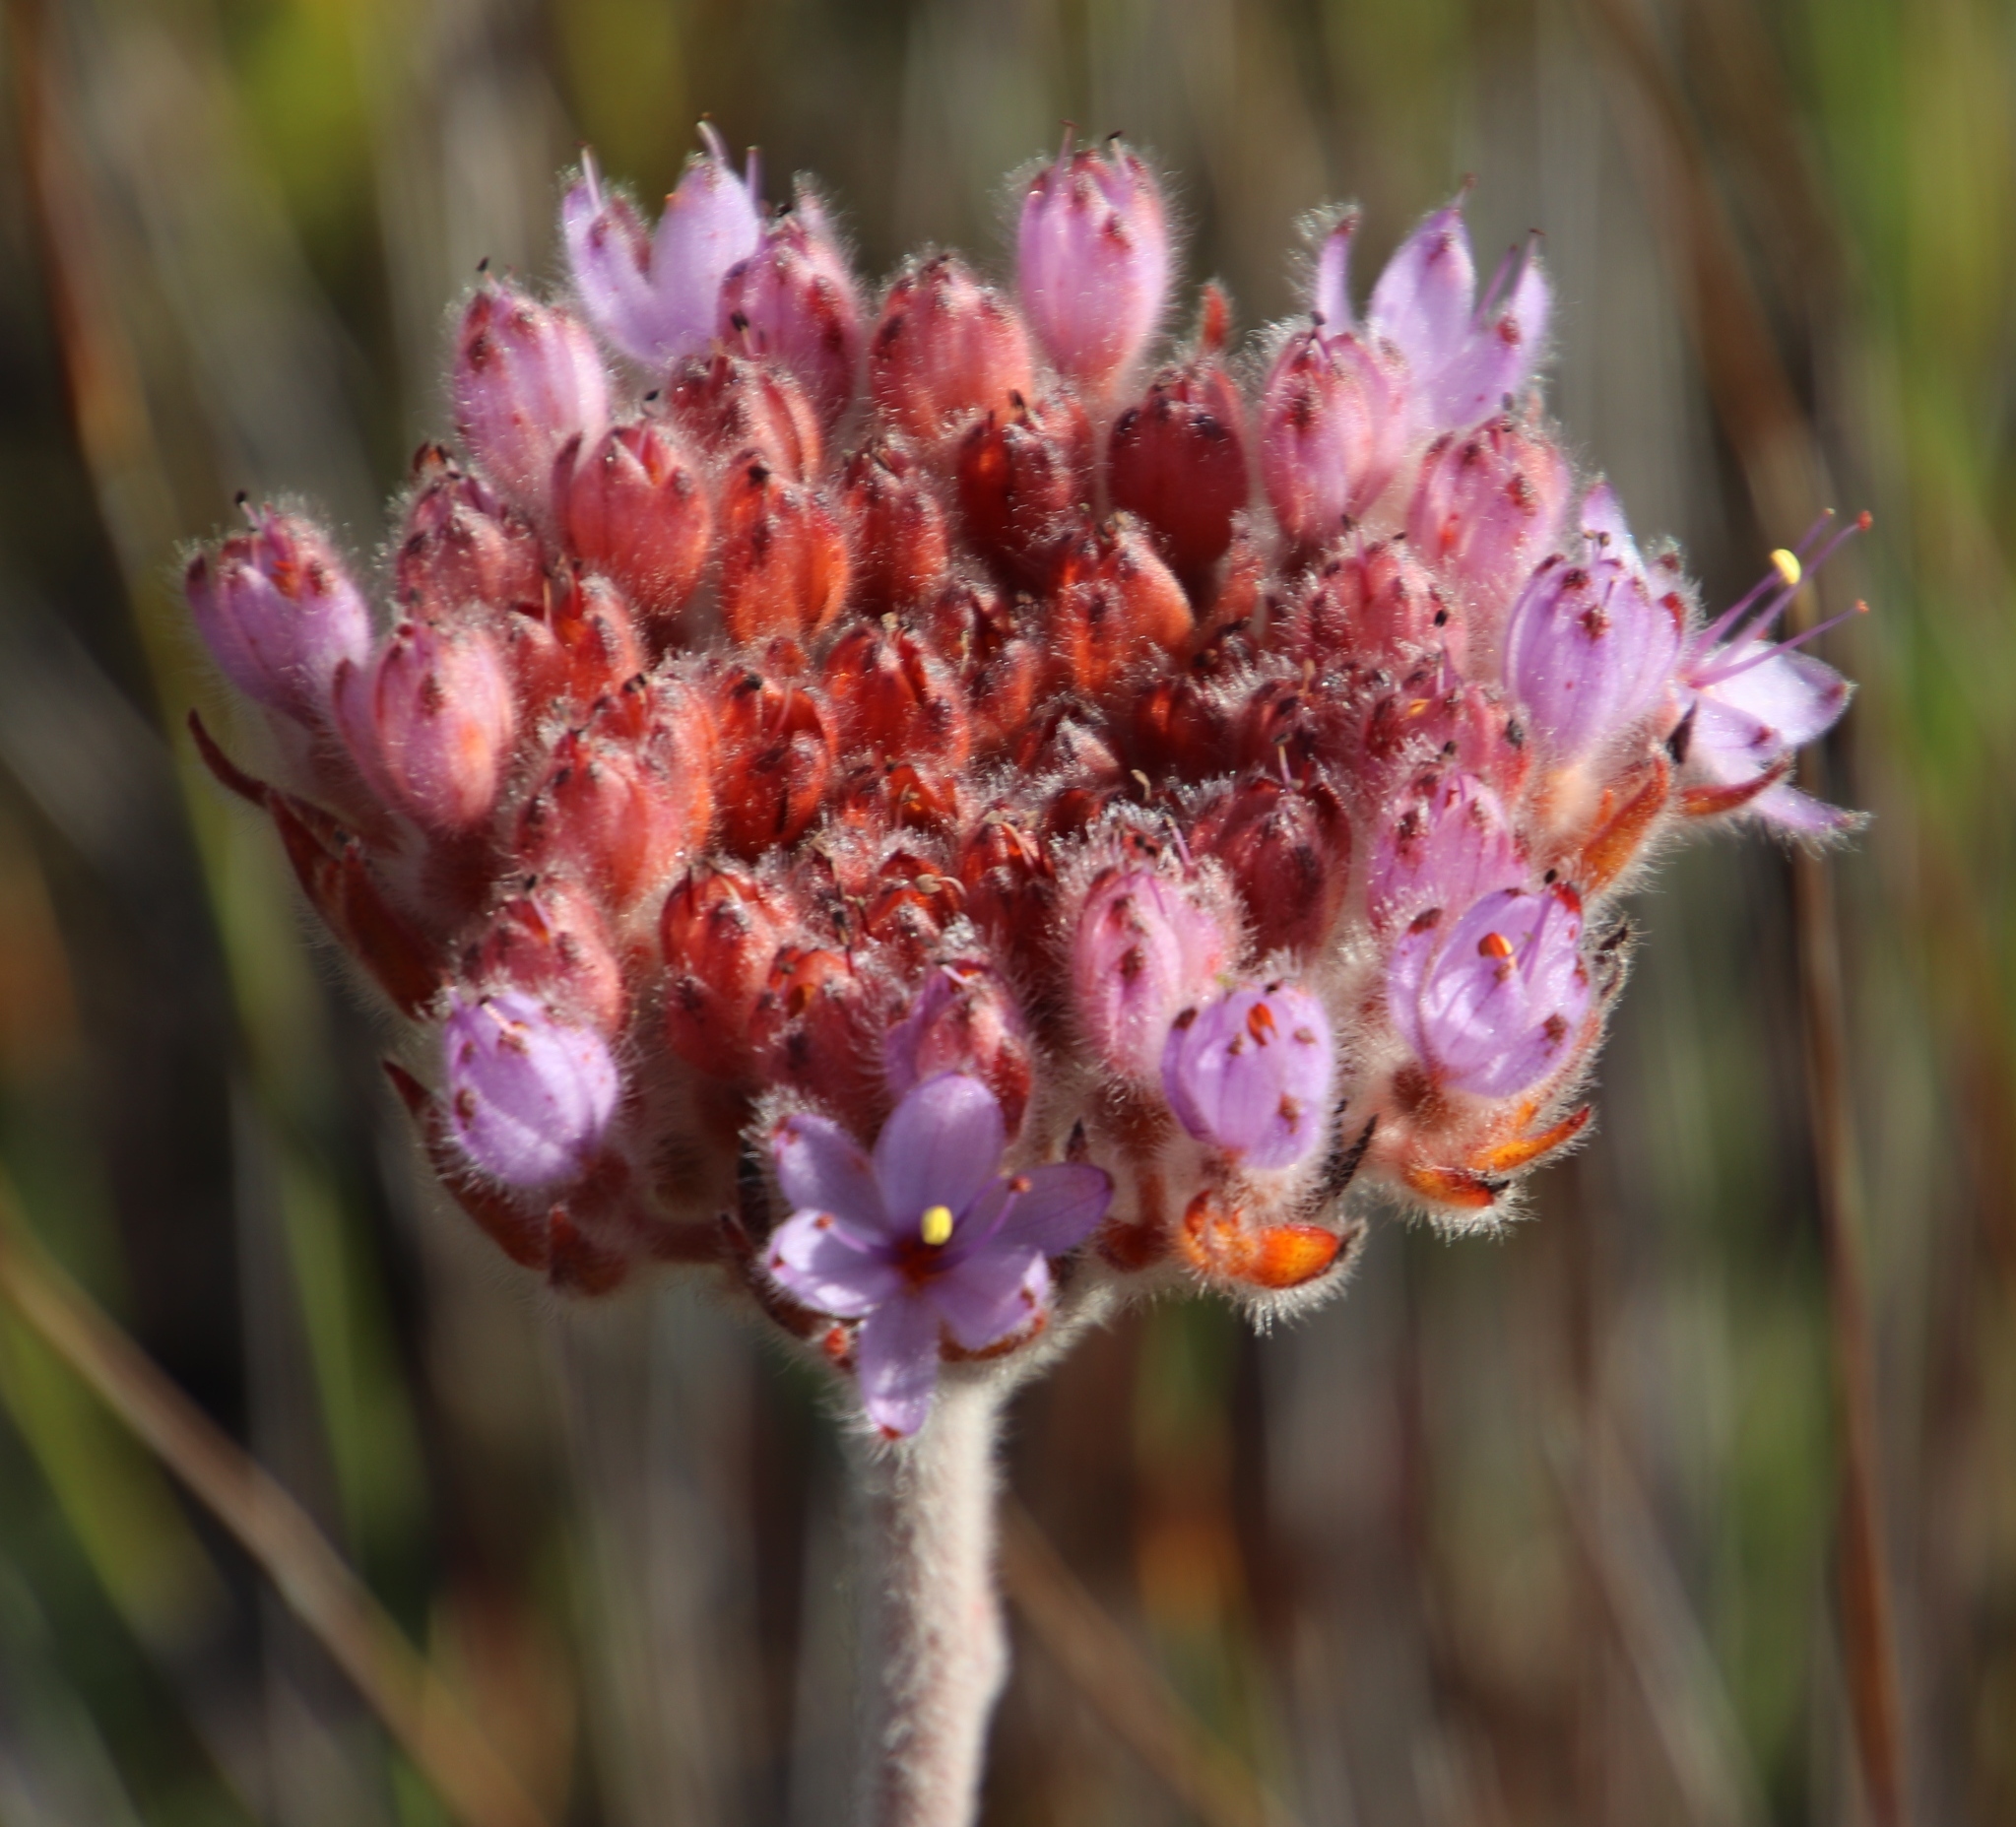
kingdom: Plantae
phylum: Tracheophyta
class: Liliopsida
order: Commelinales
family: Haemodoraceae
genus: Dilatris
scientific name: Dilatris corymbosa
